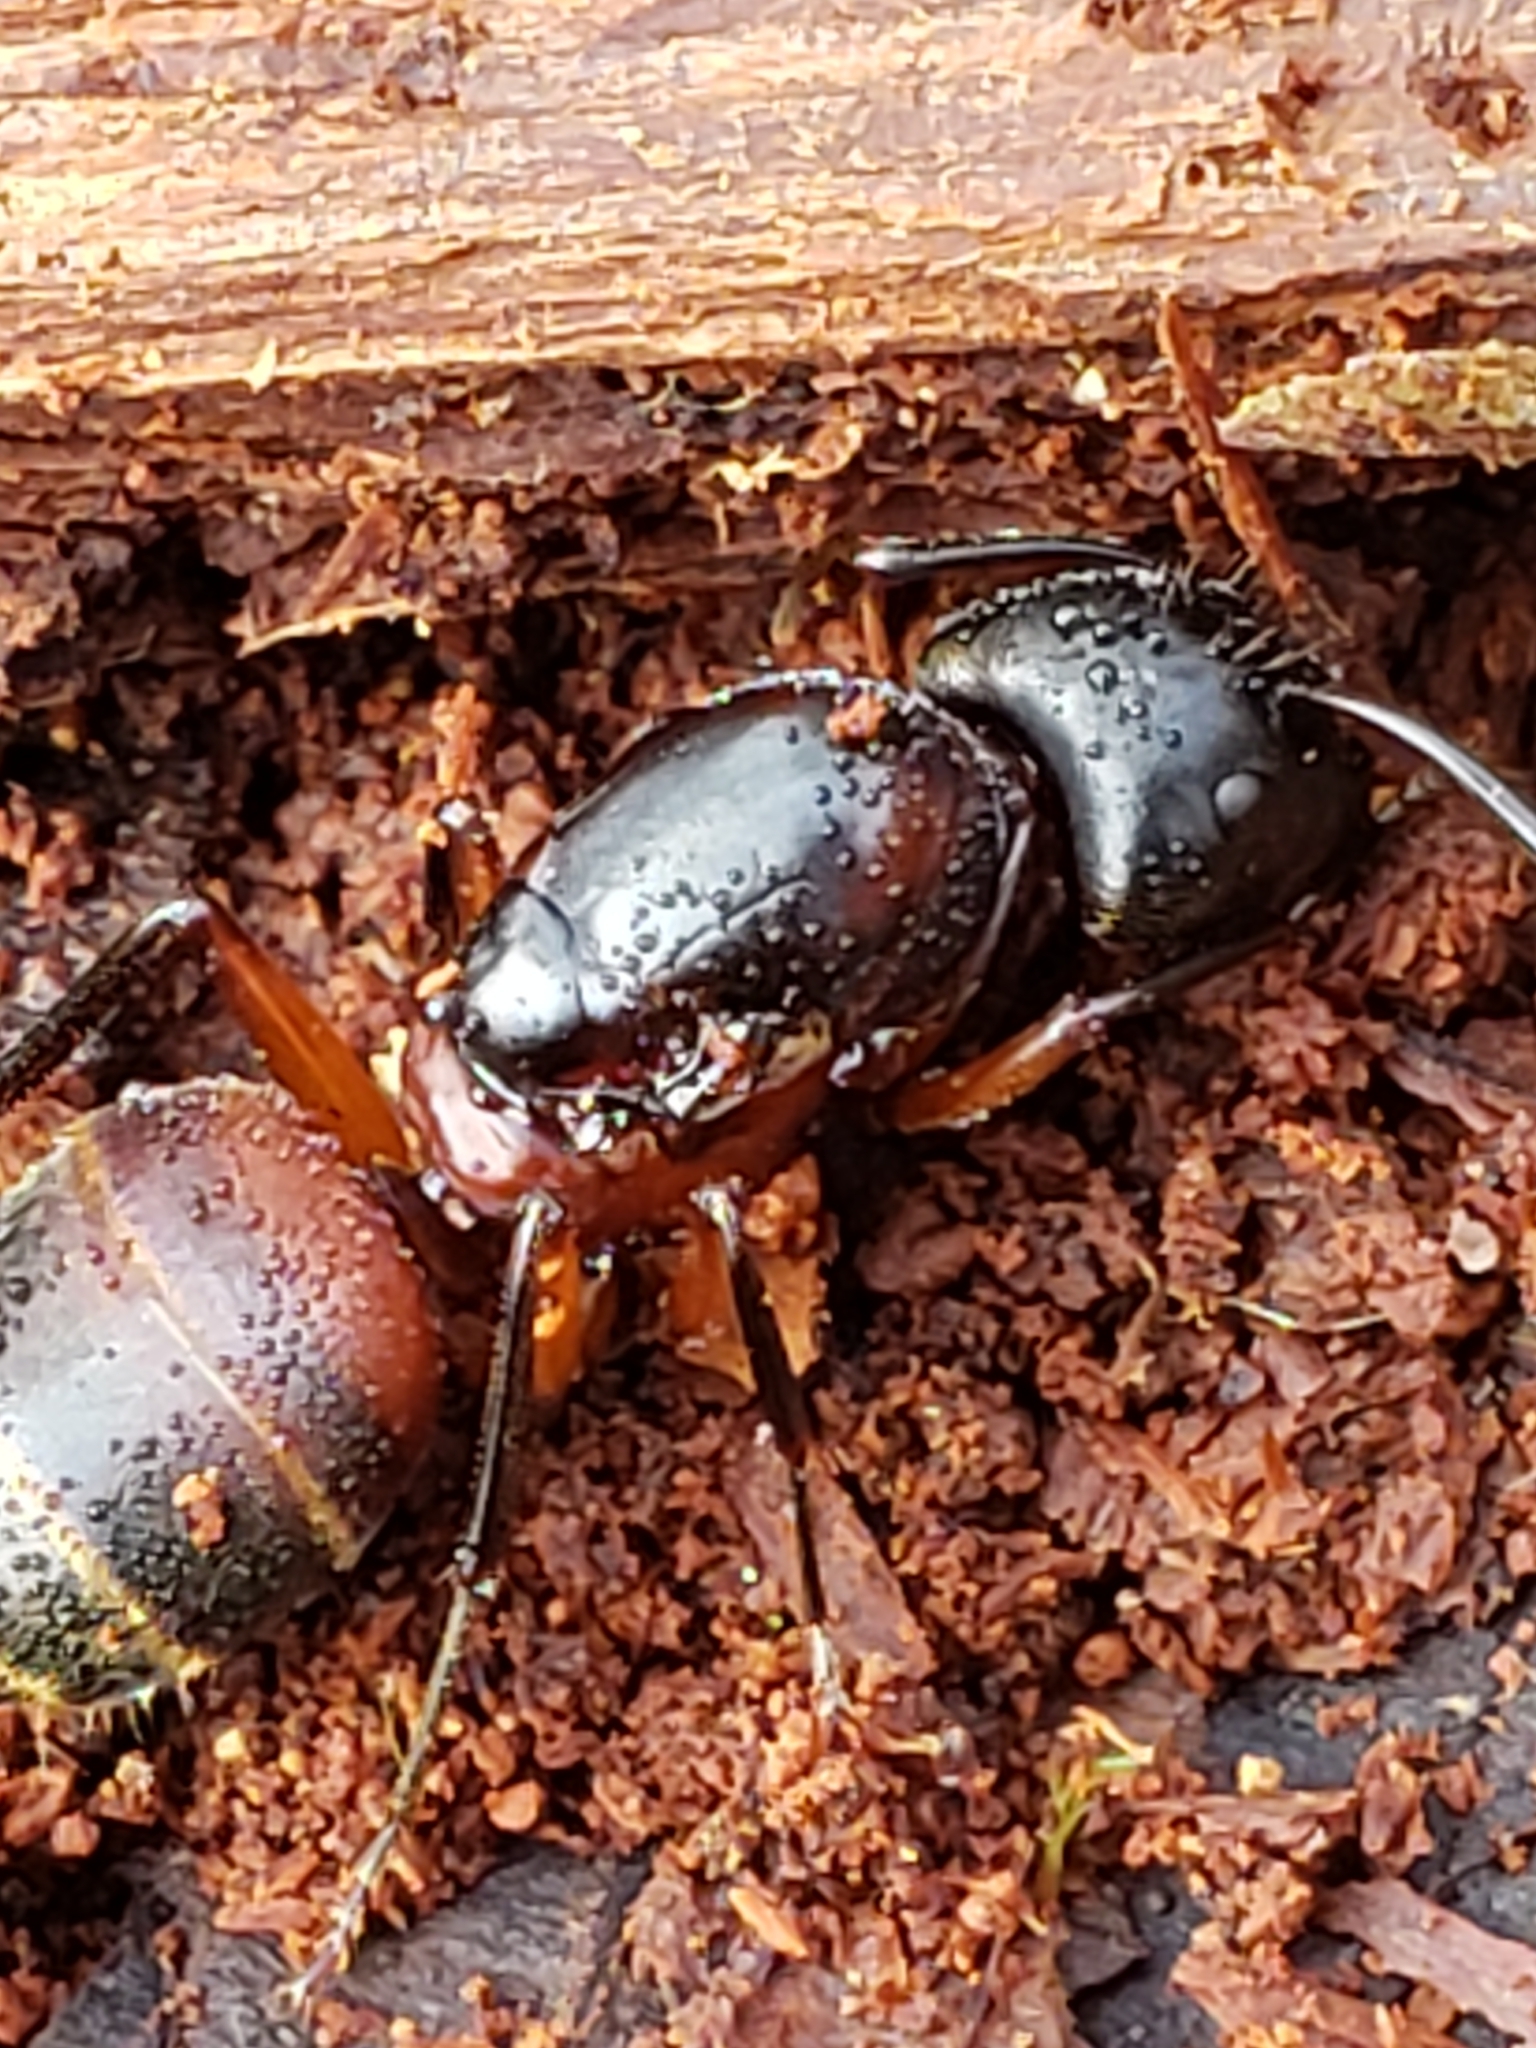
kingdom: Animalia
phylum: Arthropoda
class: Insecta
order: Hymenoptera
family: Formicidae
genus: Camponotus
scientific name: Camponotus chromaiodes
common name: Red carpenter ant
